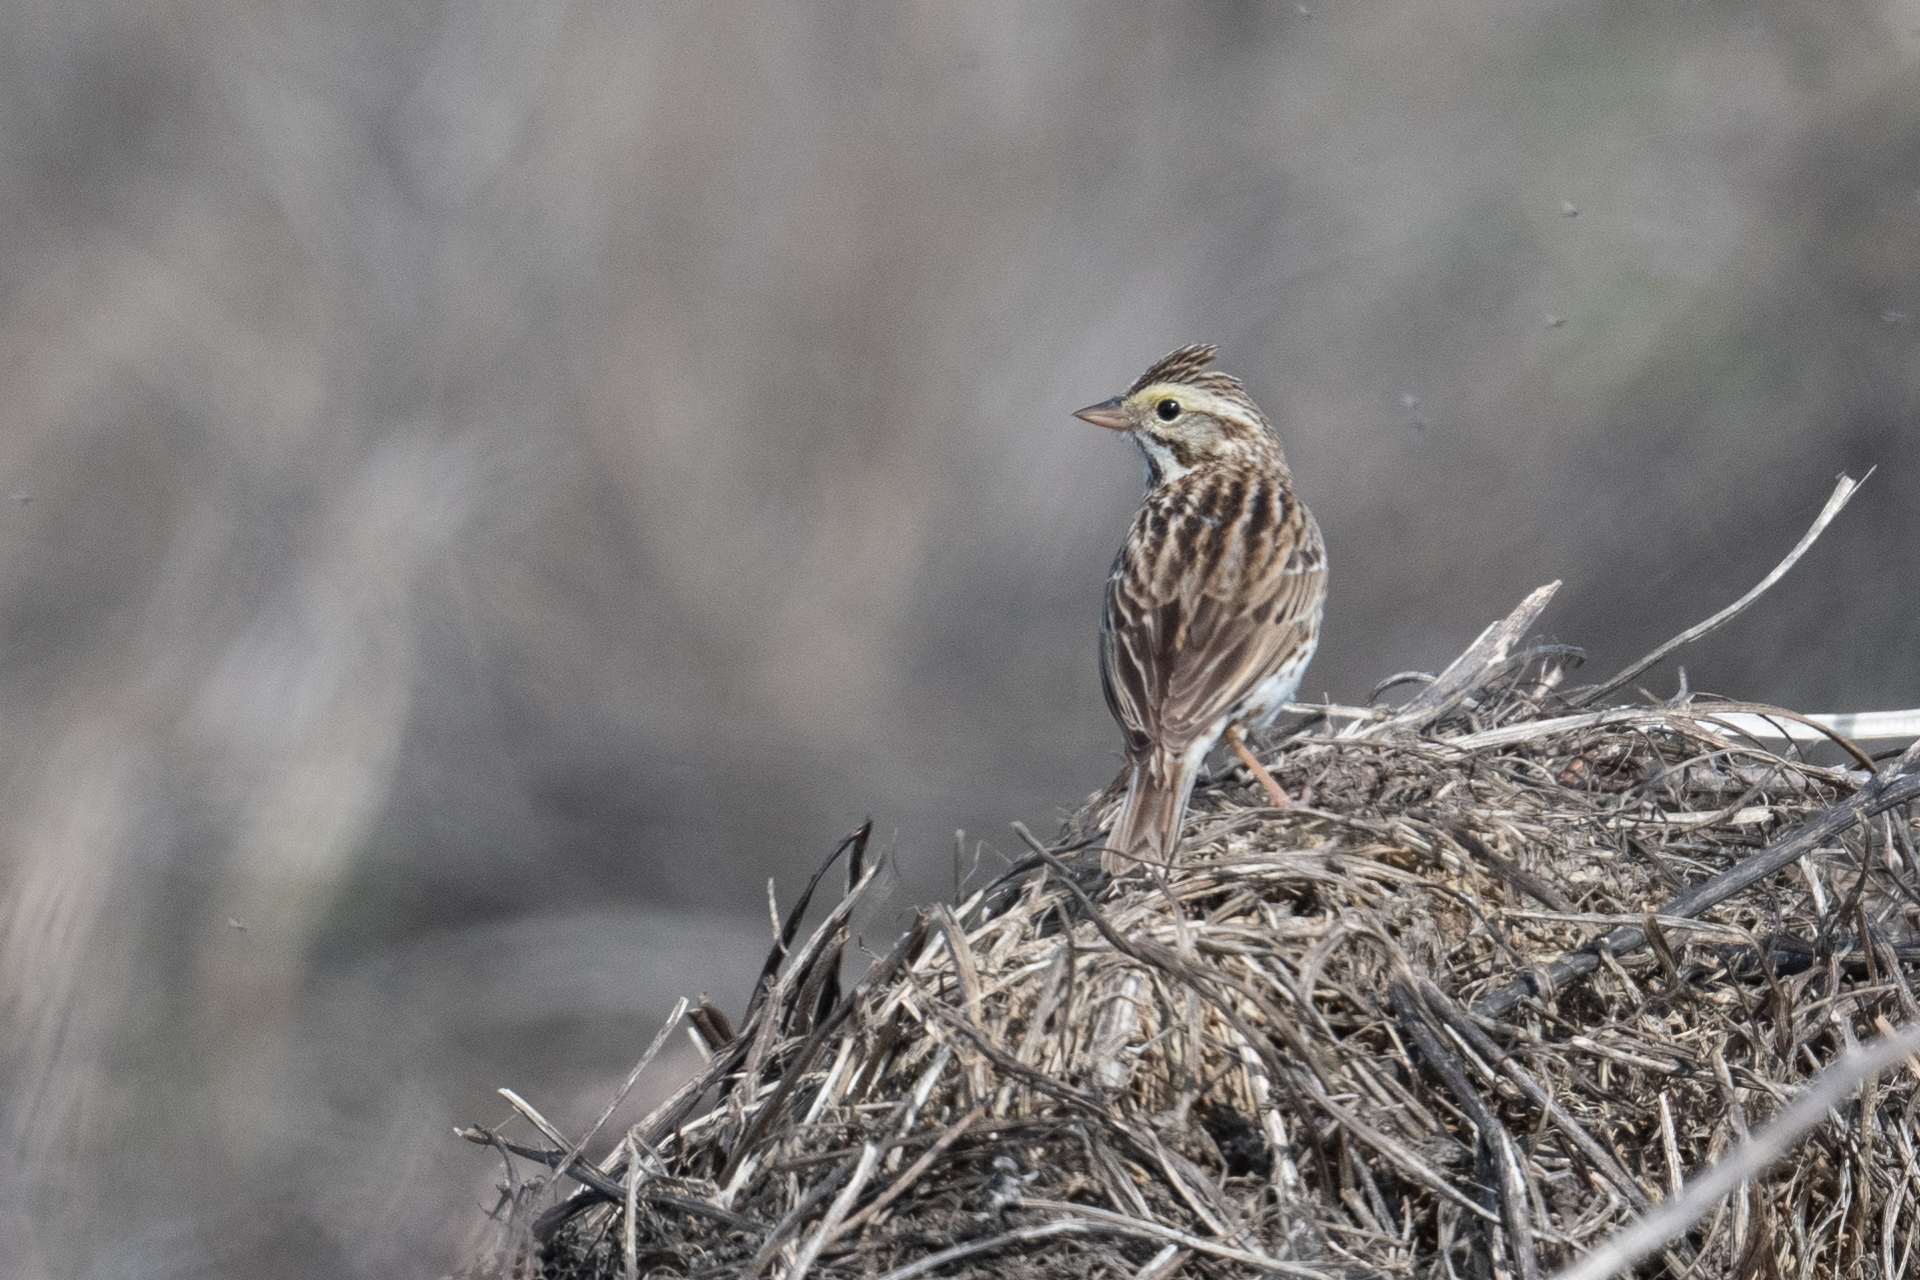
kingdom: Animalia
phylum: Chordata
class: Aves
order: Passeriformes
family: Passerellidae
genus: Passerculus
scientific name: Passerculus sandwichensis
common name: Savannah sparrow
